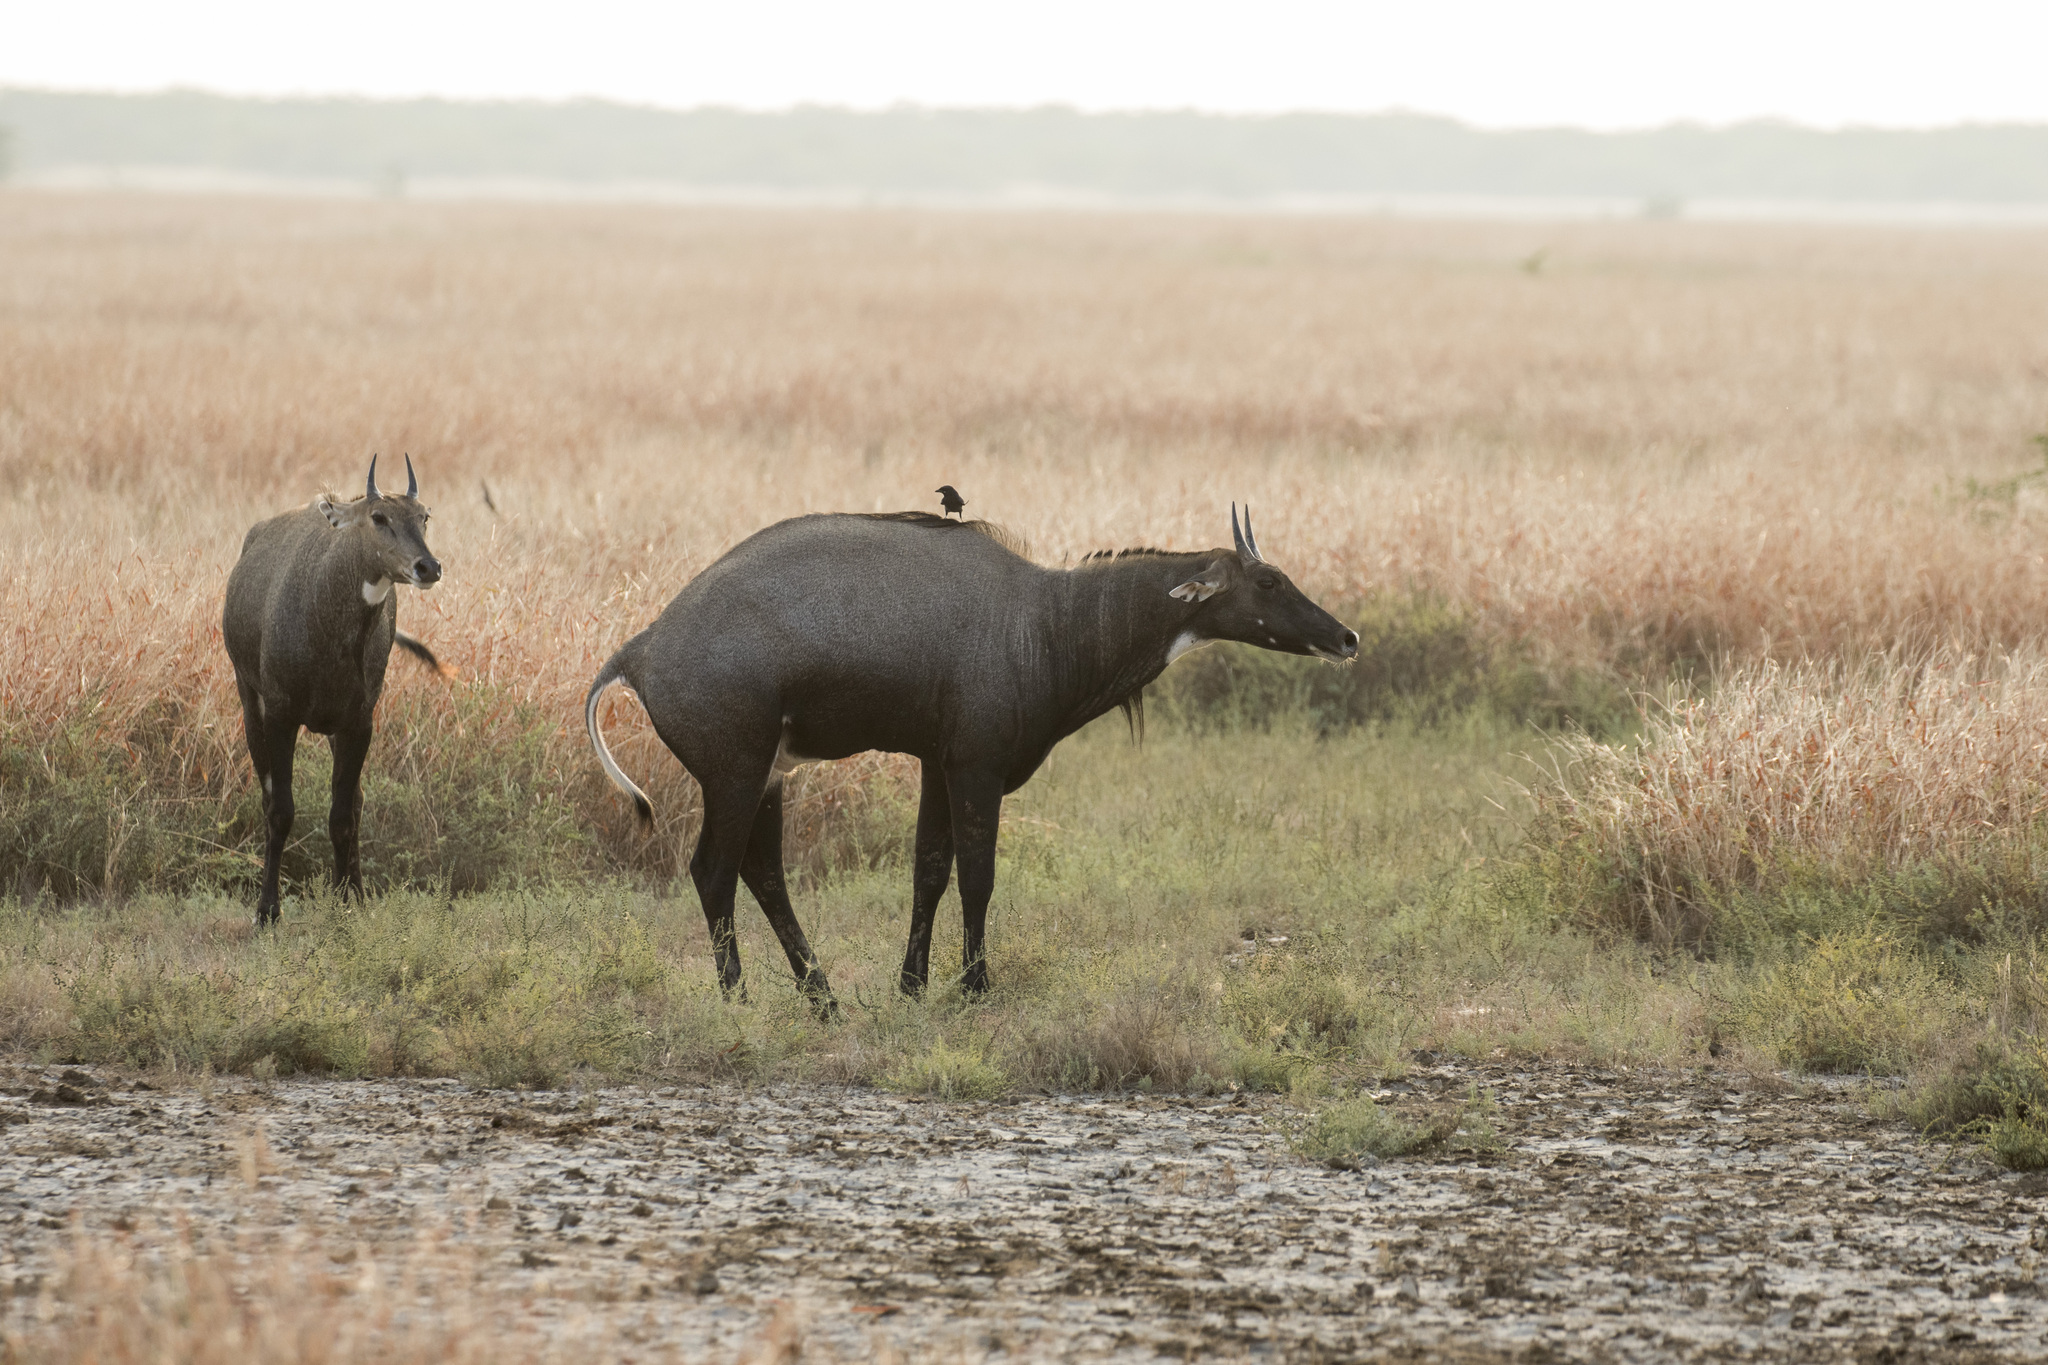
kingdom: Animalia
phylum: Chordata
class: Mammalia
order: Artiodactyla
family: Bovidae
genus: Boselaphus
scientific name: Boselaphus tragocamelus
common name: Nilgai
